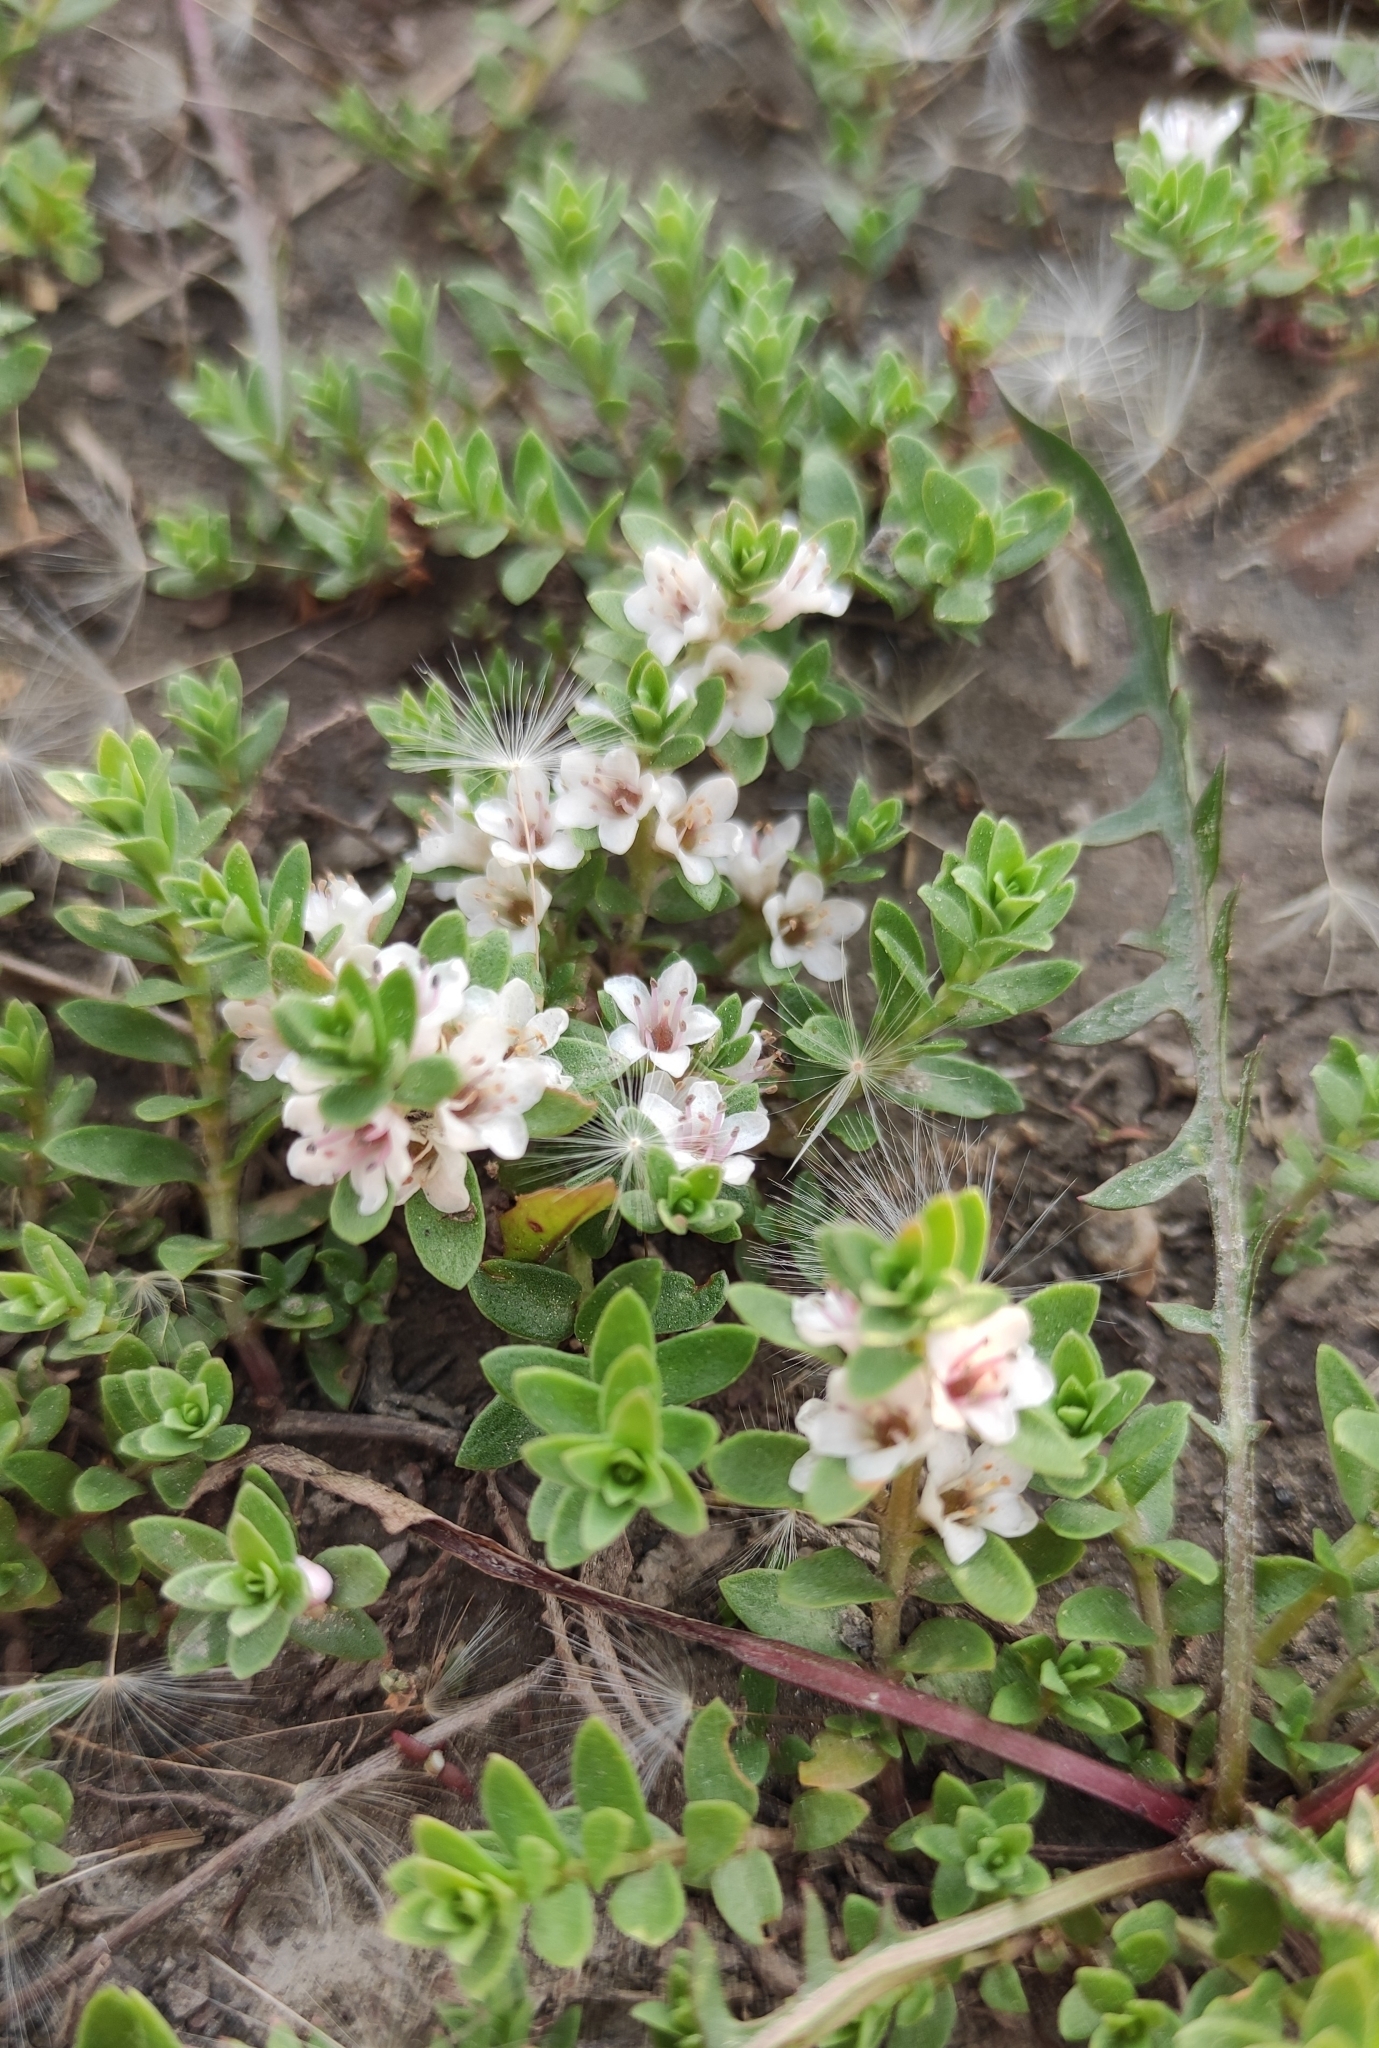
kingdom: Plantae
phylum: Tracheophyta
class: Magnoliopsida
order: Ericales
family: Primulaceae
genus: Lysimachia
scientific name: Lysimachia maritima
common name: Sea milkwort
